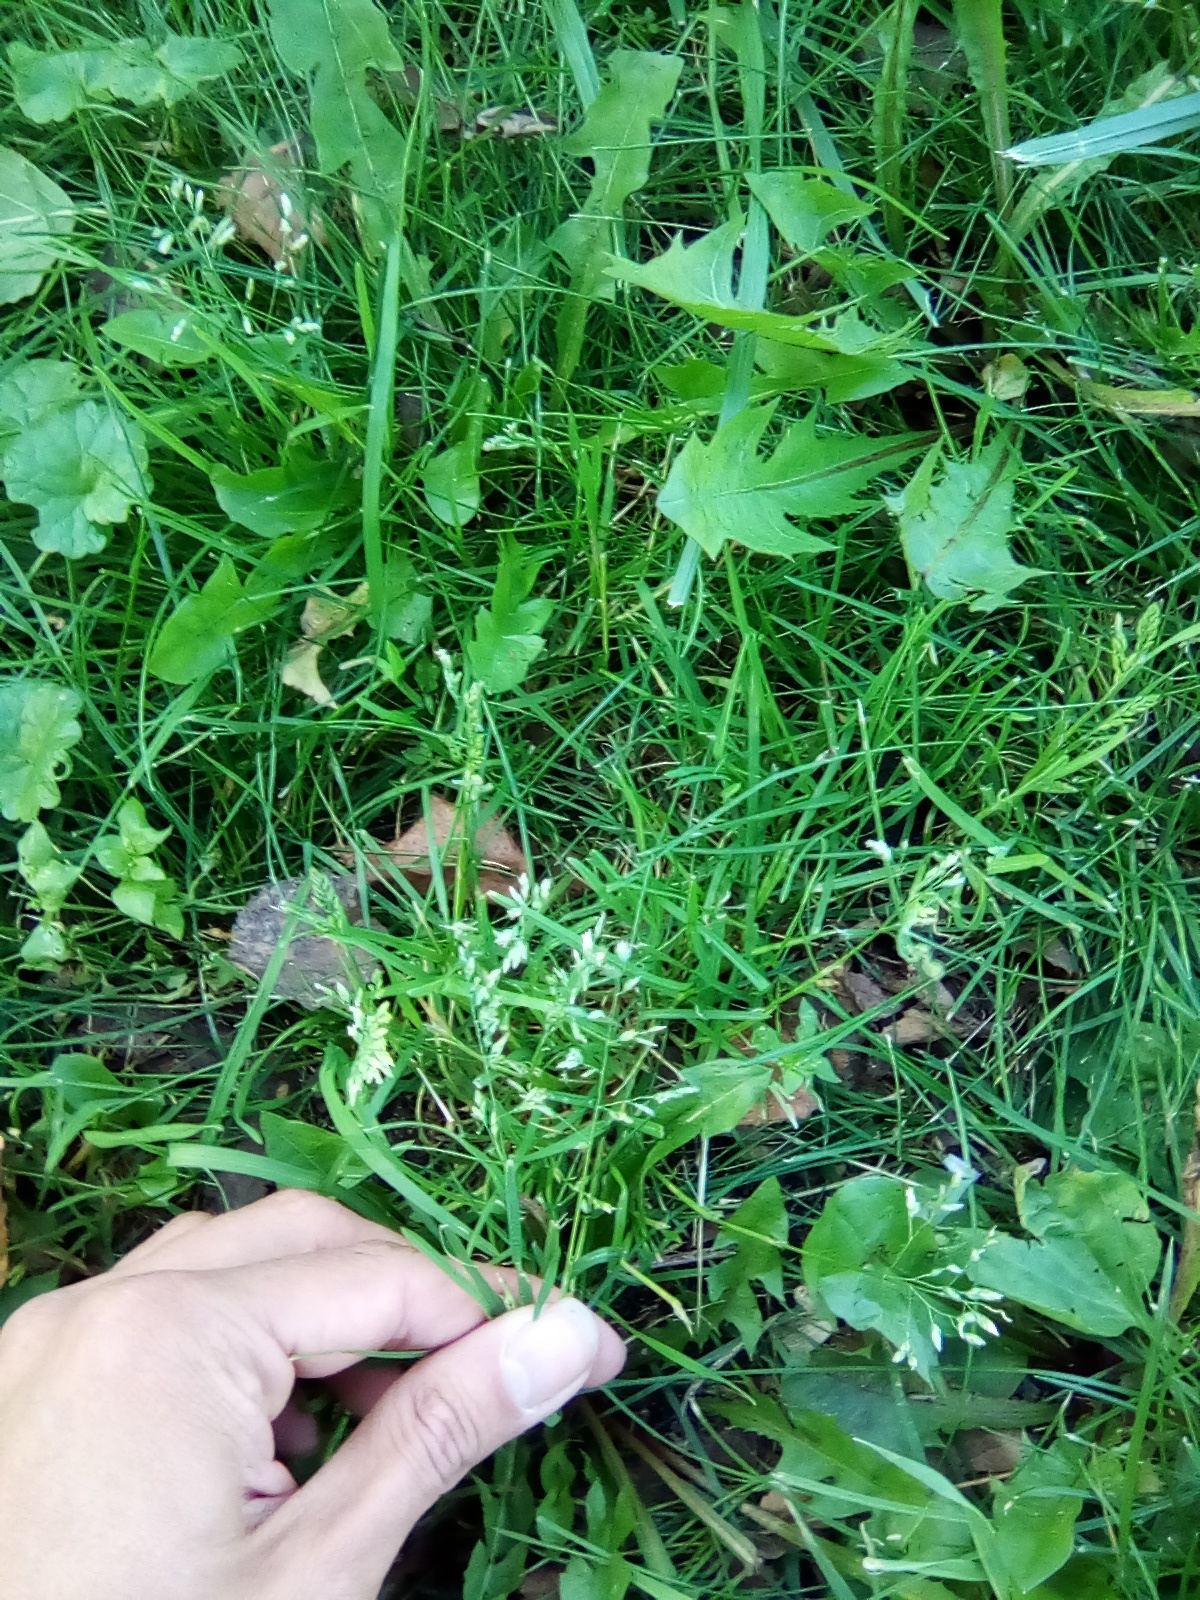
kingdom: Plantae
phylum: Tracheophyta
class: Liliopsida
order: Poales
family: Poaceae
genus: Poa
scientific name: Poa annua
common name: Annual bluegrass
